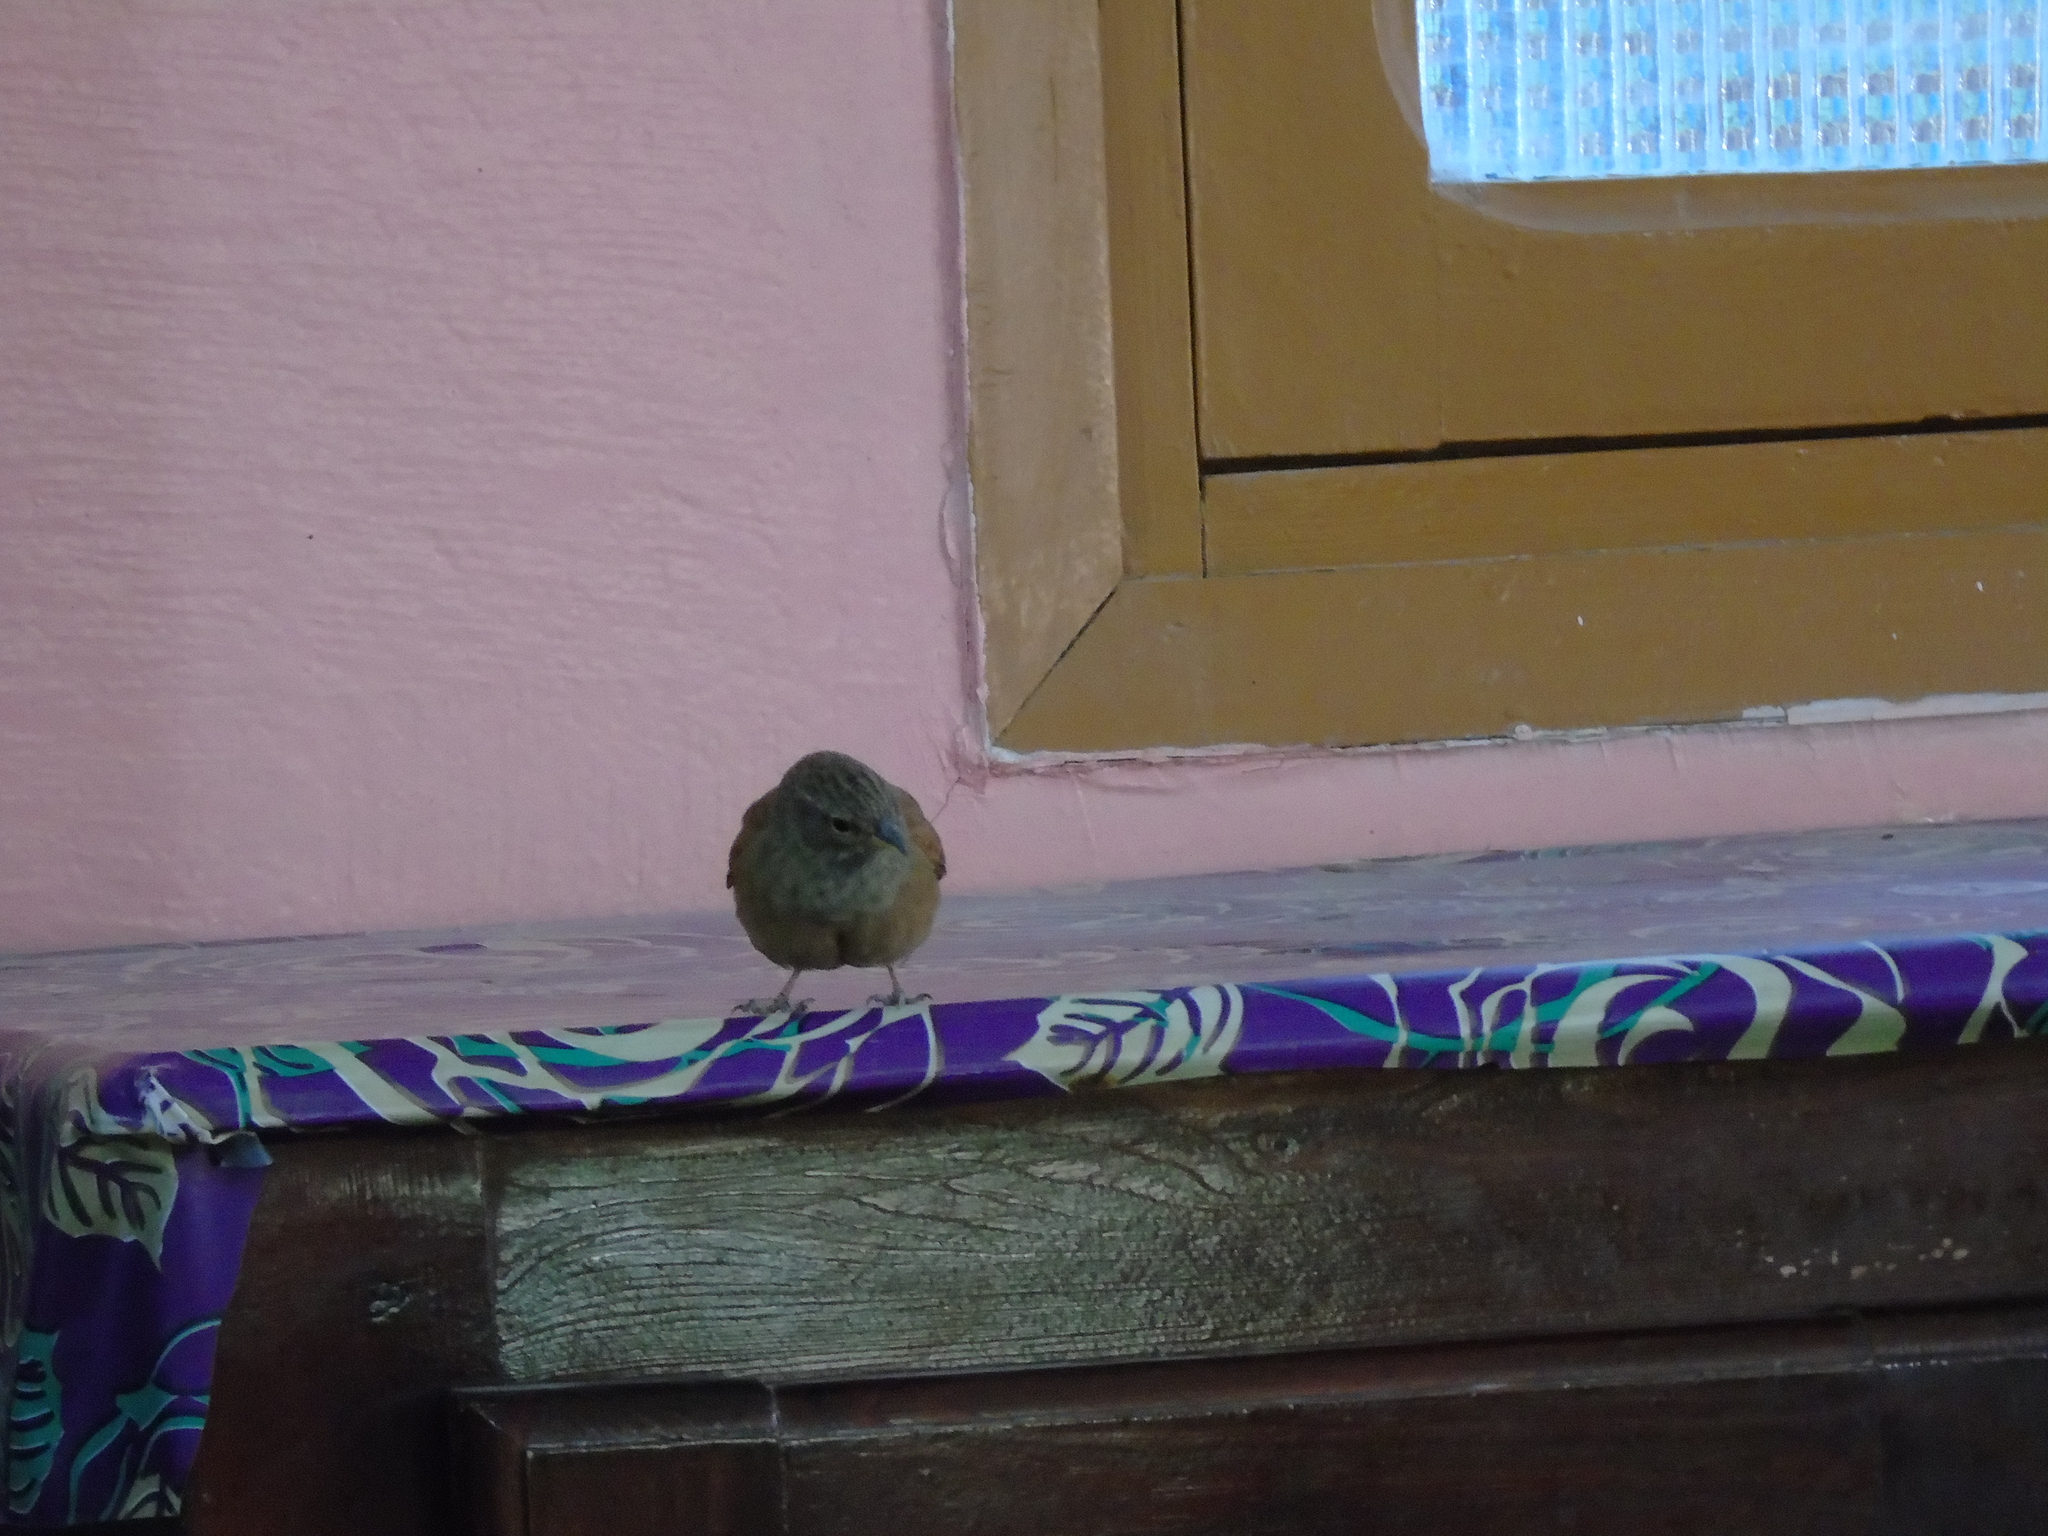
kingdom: Animalia
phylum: Chordata
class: Aves
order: Passeriformes
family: Emberizidae
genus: Emberiza
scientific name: Emberiza sahari
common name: House bunting
